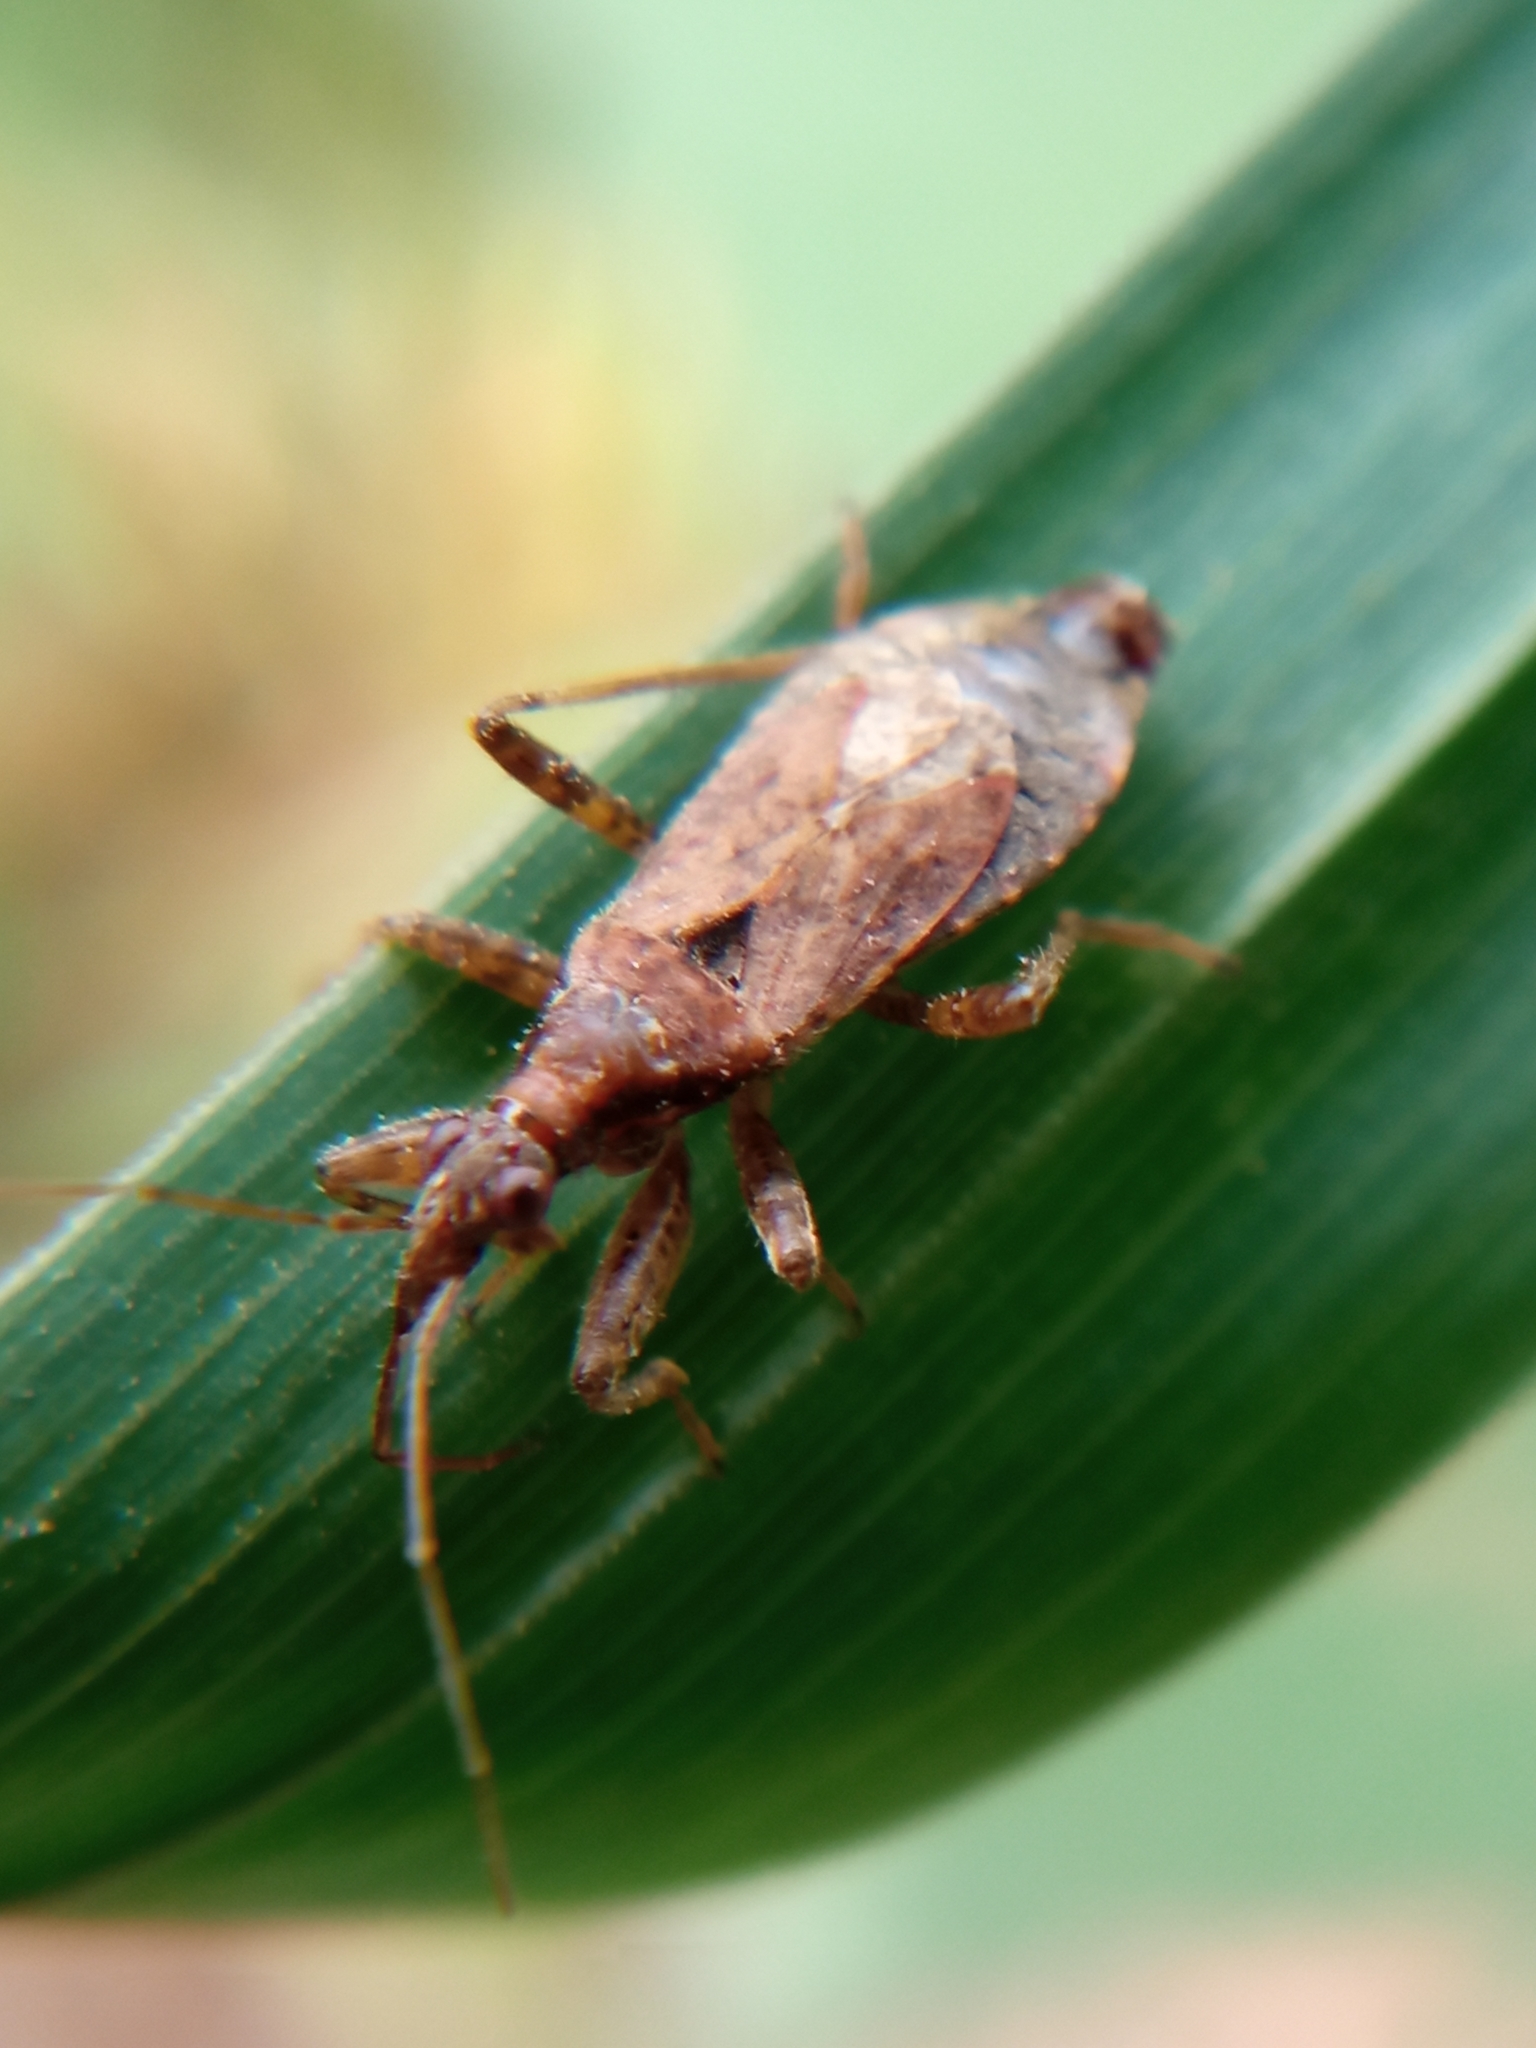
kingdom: Animalia
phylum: Arthropoda
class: Insecta
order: Hemiptera
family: Nabidae
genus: Himacerus
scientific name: Himacerus mirmicoides
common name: Ant damsel bug
